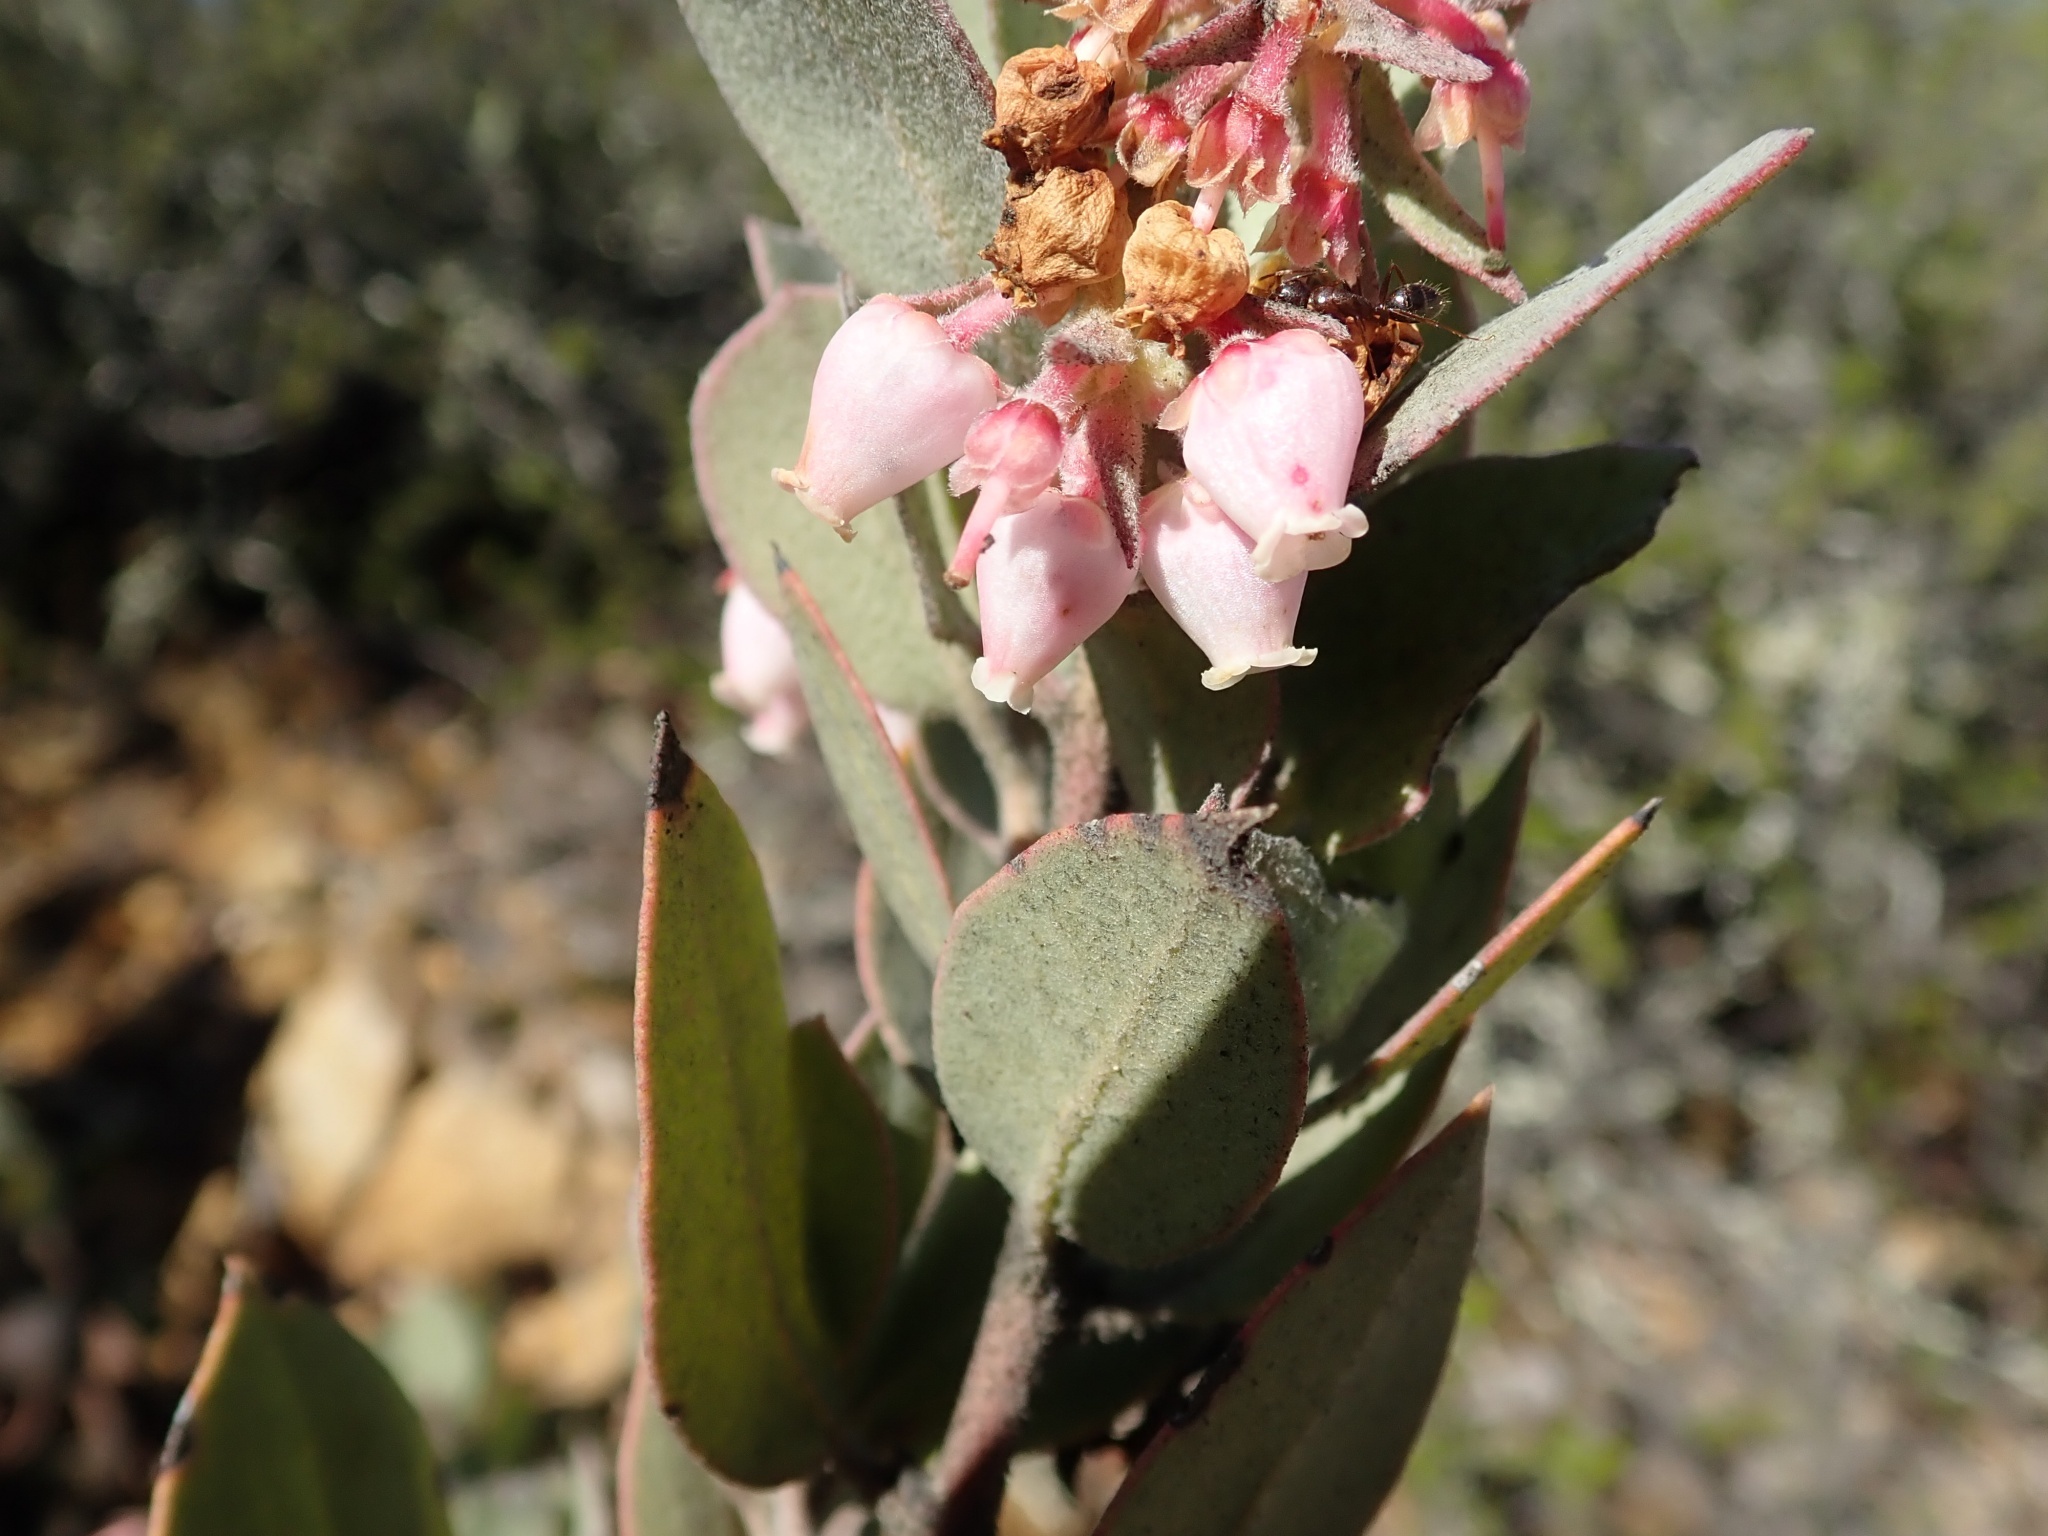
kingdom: Plantae
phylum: Tracheophyta
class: Magnoliopsida
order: Ericales
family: Ericaceae
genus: Arctostaphylos
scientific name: Arctostaphylos canescens
